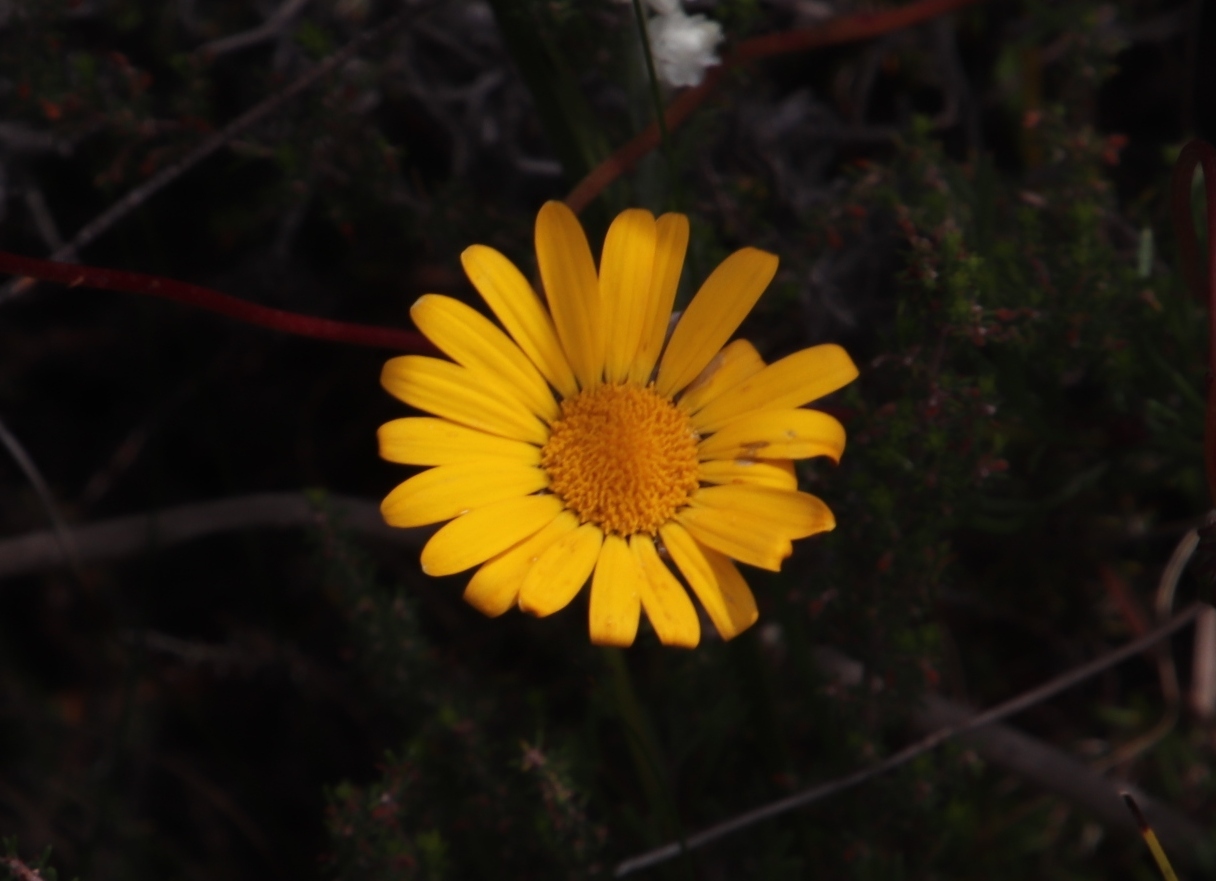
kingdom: Plantae
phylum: Tracheophyta
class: Magnoliopsida
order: Asterales
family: Asteraceae
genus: Ursinia
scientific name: Ursinia paleacea
